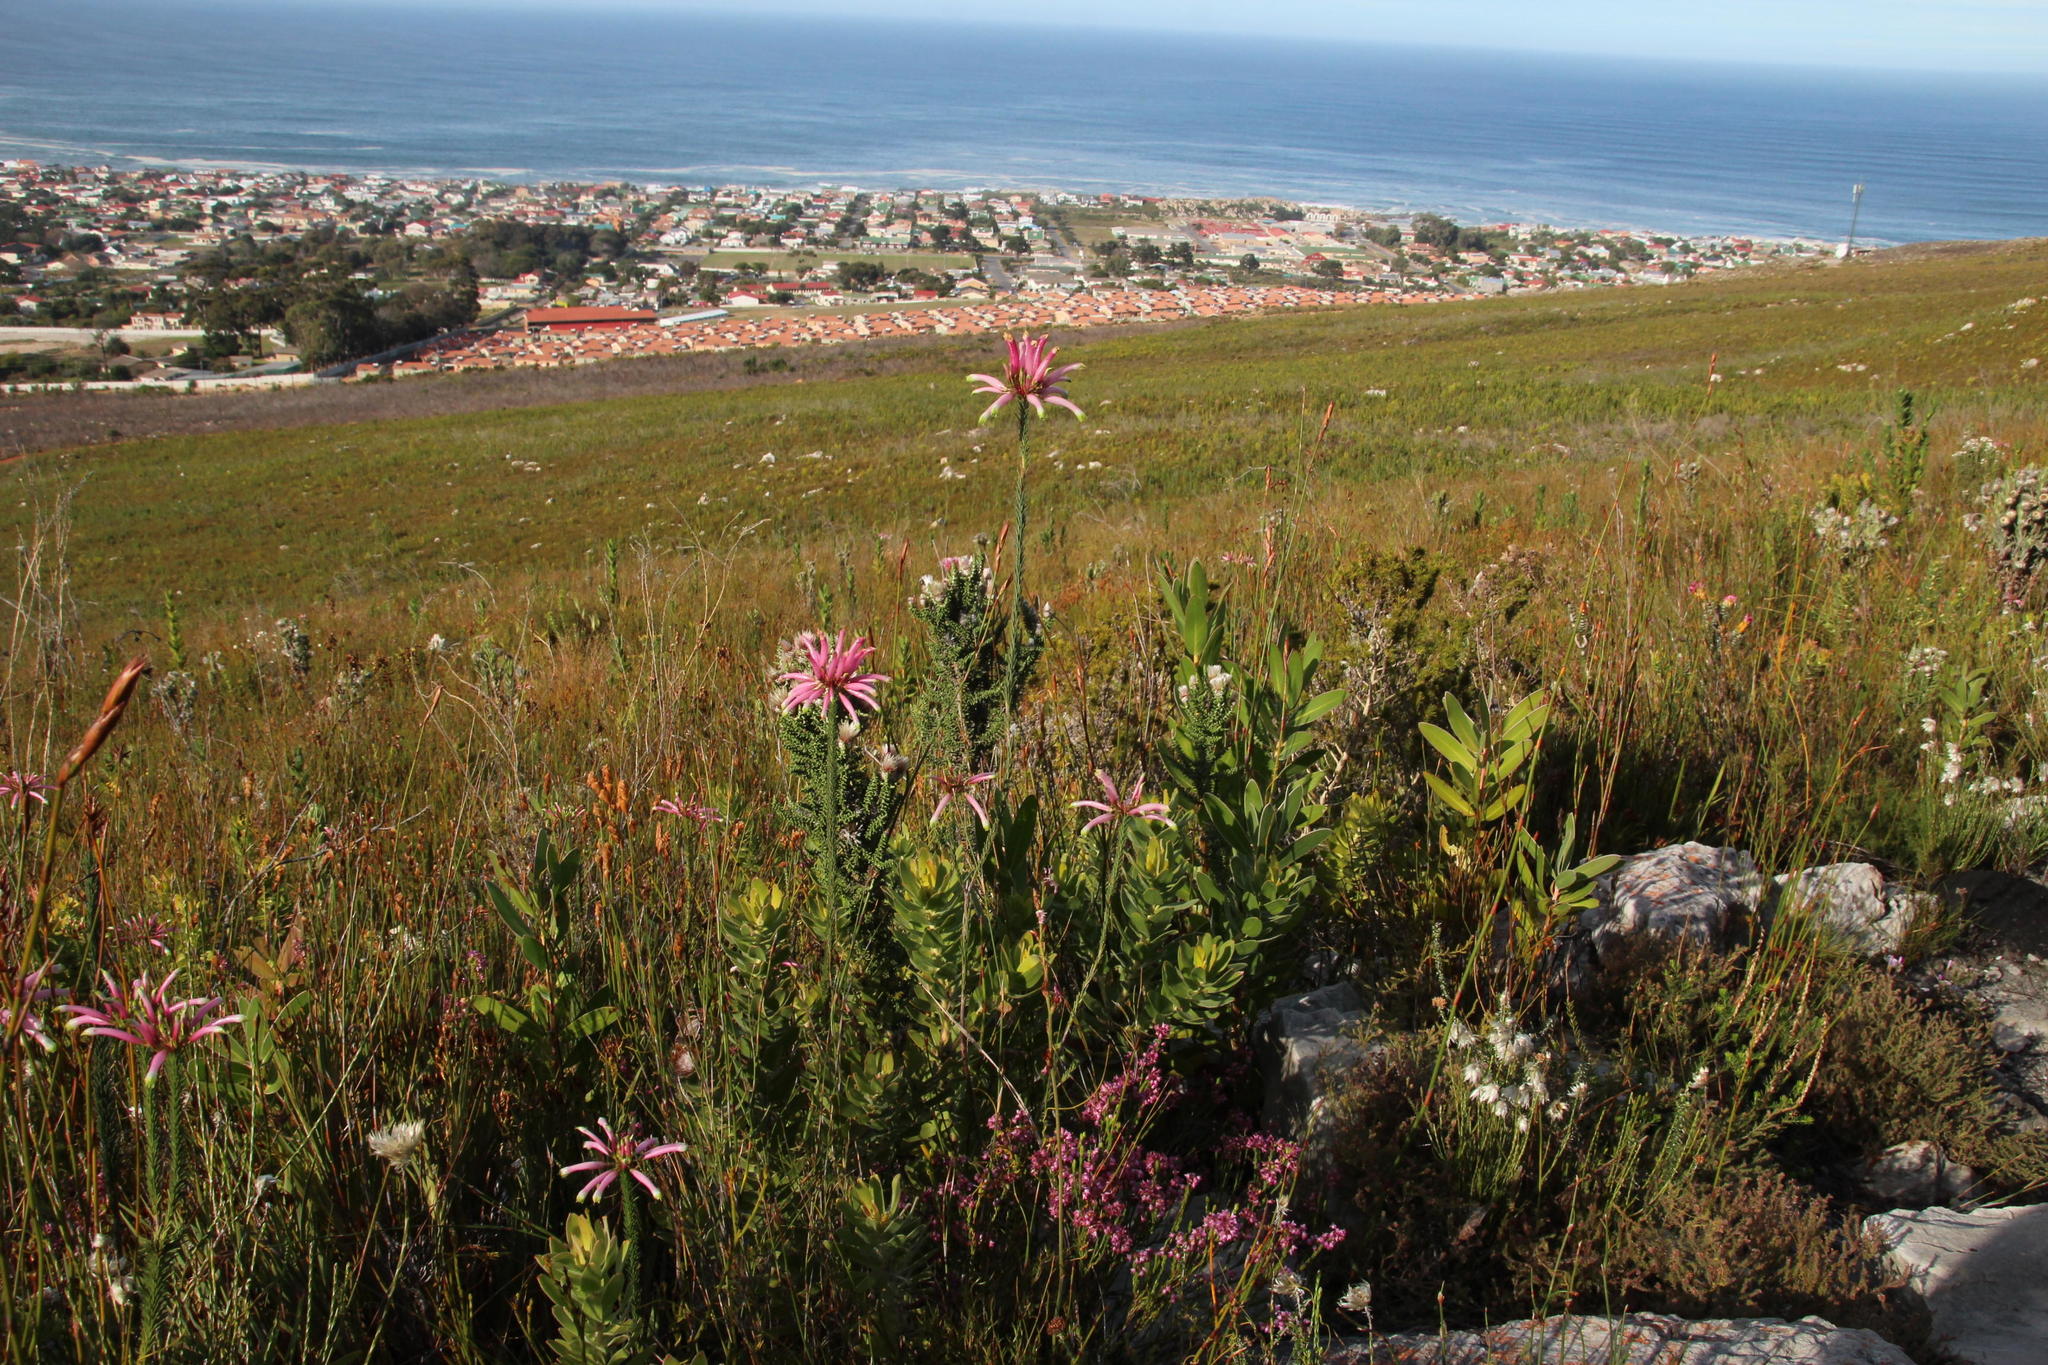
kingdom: Plantae
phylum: Tracheophyta
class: Magnoliopsida
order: Ericales
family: Ericaceae
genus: Erica
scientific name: Erica fascicularis
